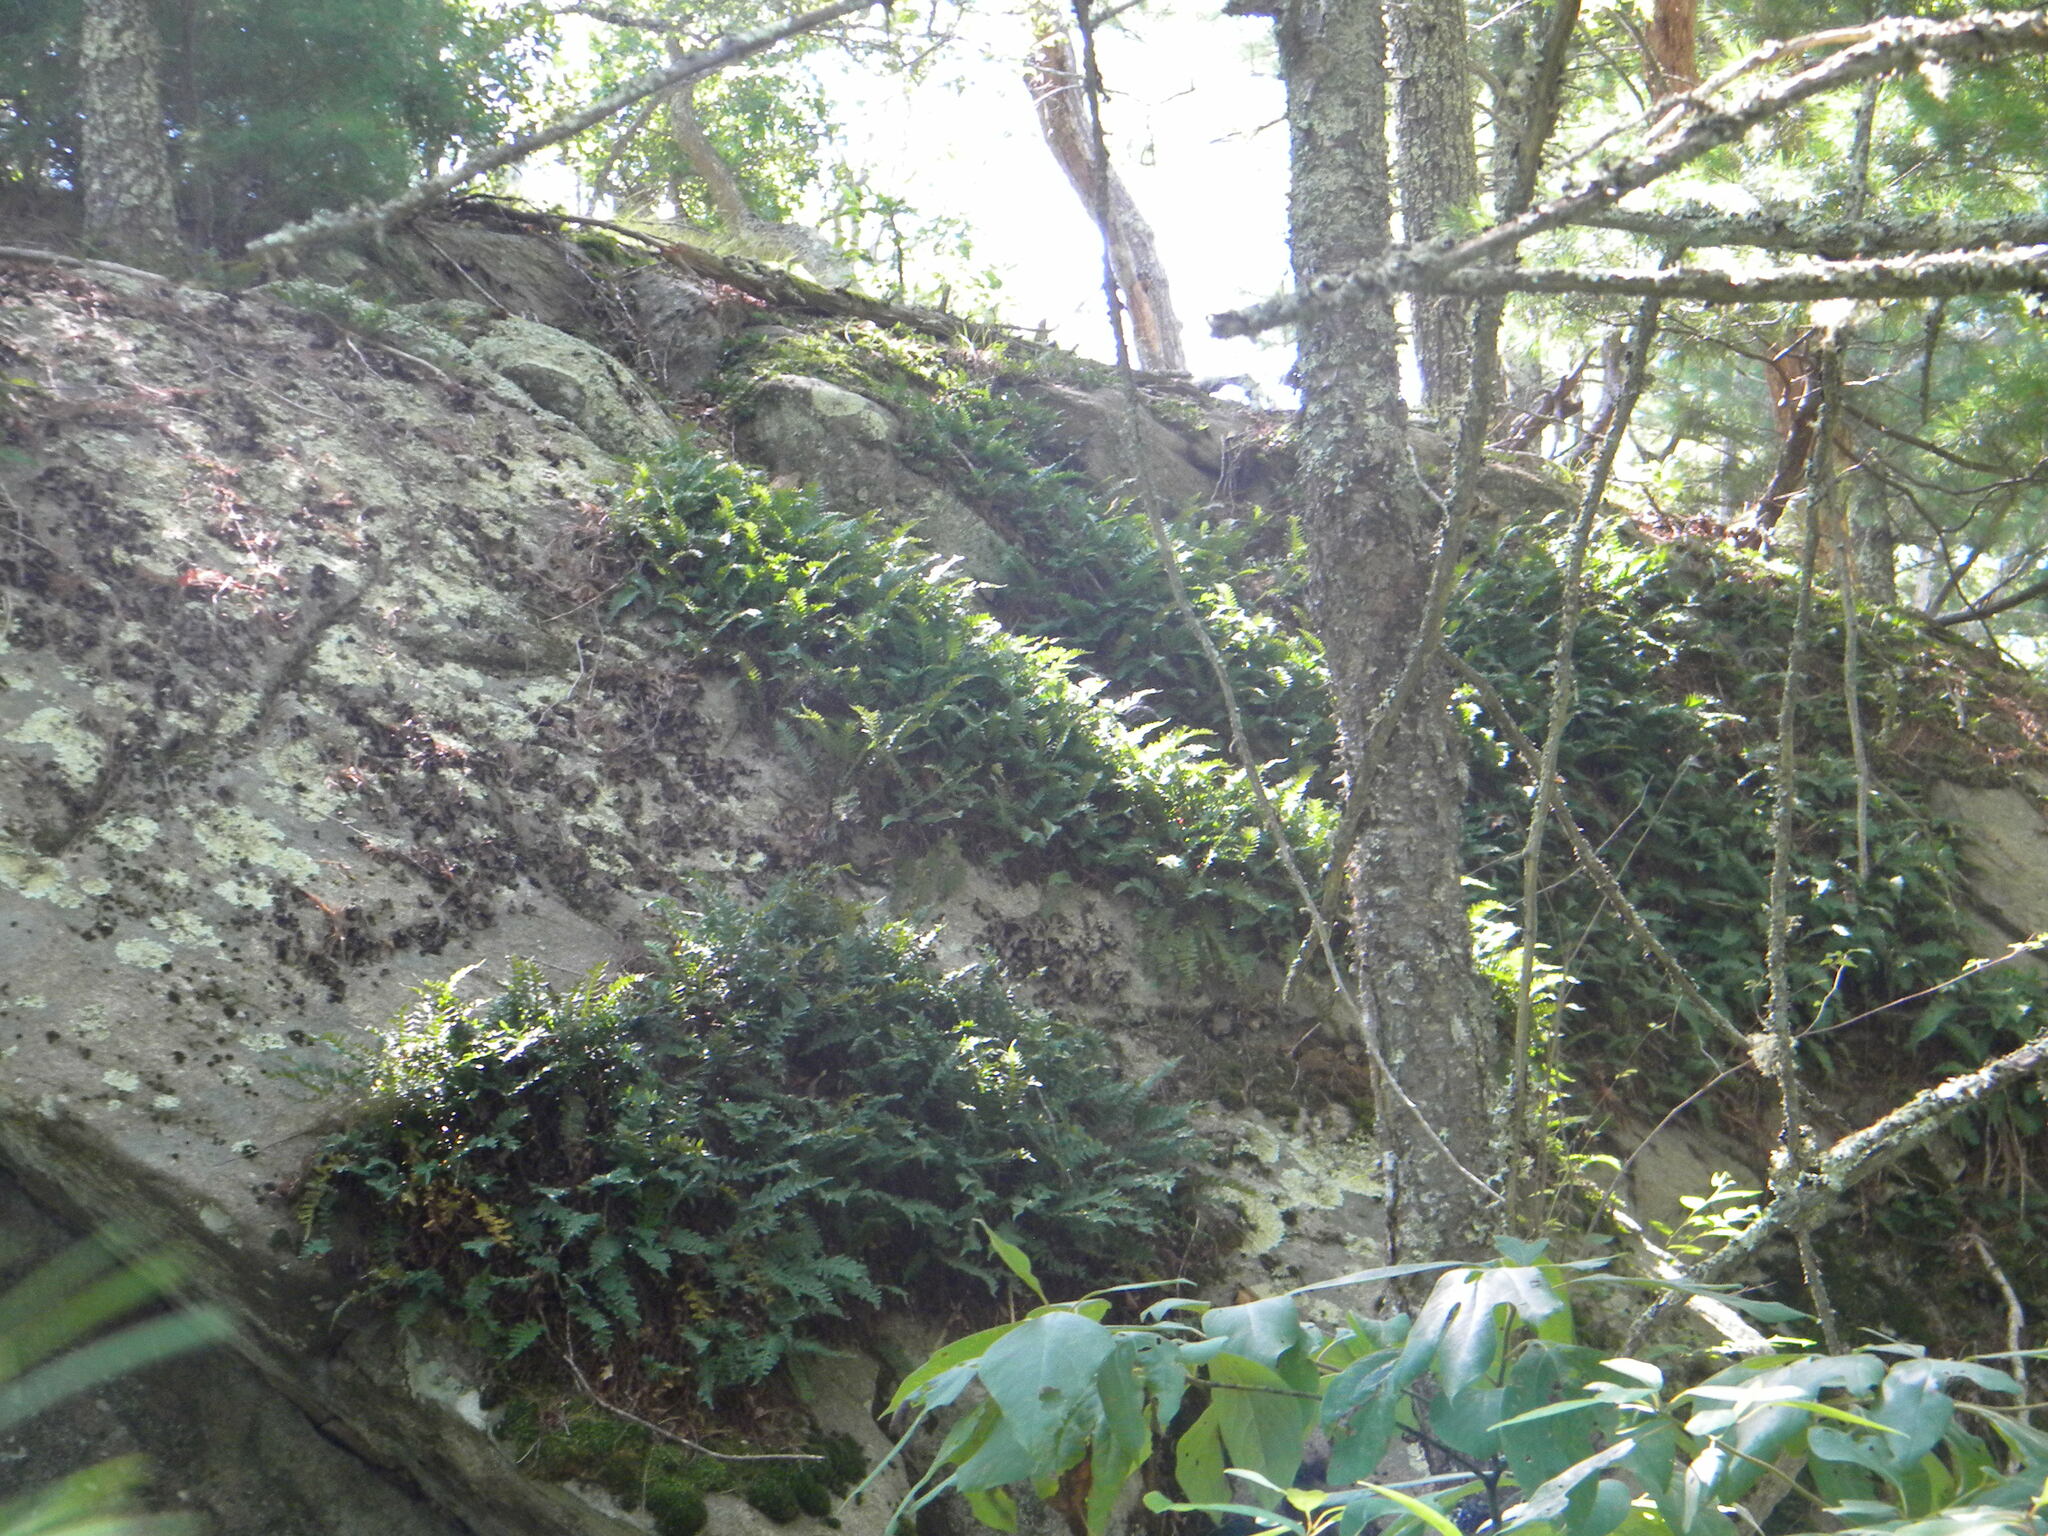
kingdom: Plantae
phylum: Tracheophyta
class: Polypodiopsida
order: Polypodiales
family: Polypodiaceae
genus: Polypodium
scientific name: Polypodium virginianum
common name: American wall fern
